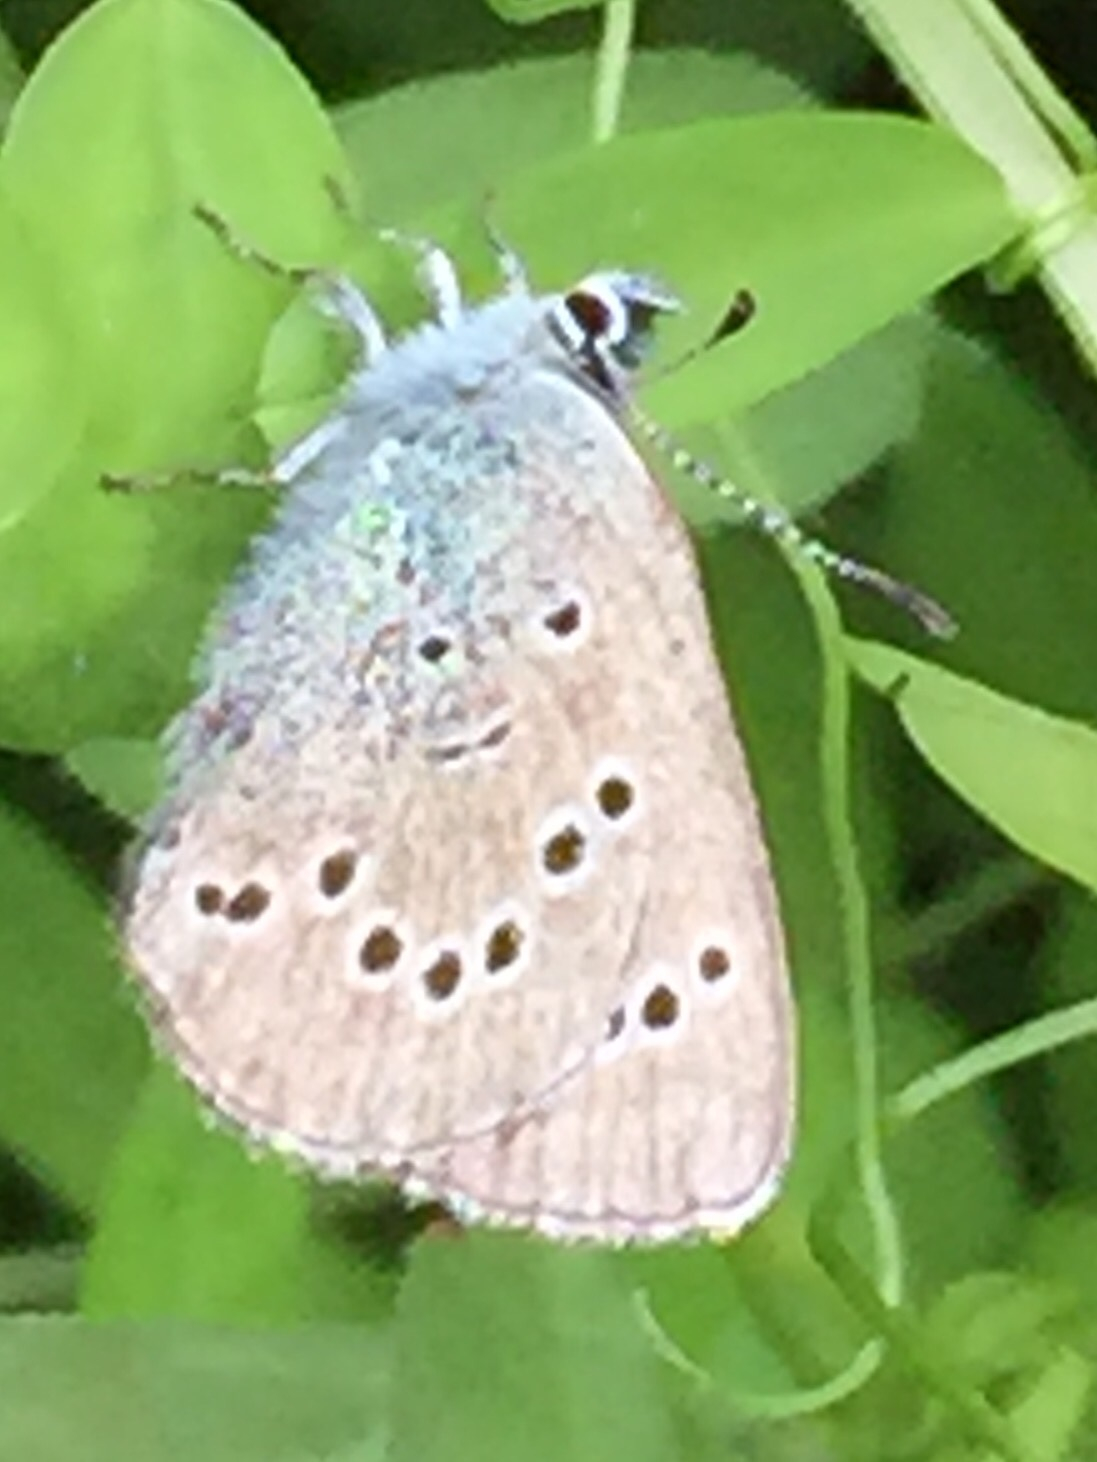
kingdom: Animalia
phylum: Arthropoda
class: Insecta
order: Lepidoptera
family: Lycaenidae
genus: Glaucopsyche
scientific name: Glaucopsyche lygdamus
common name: Silvery blue
